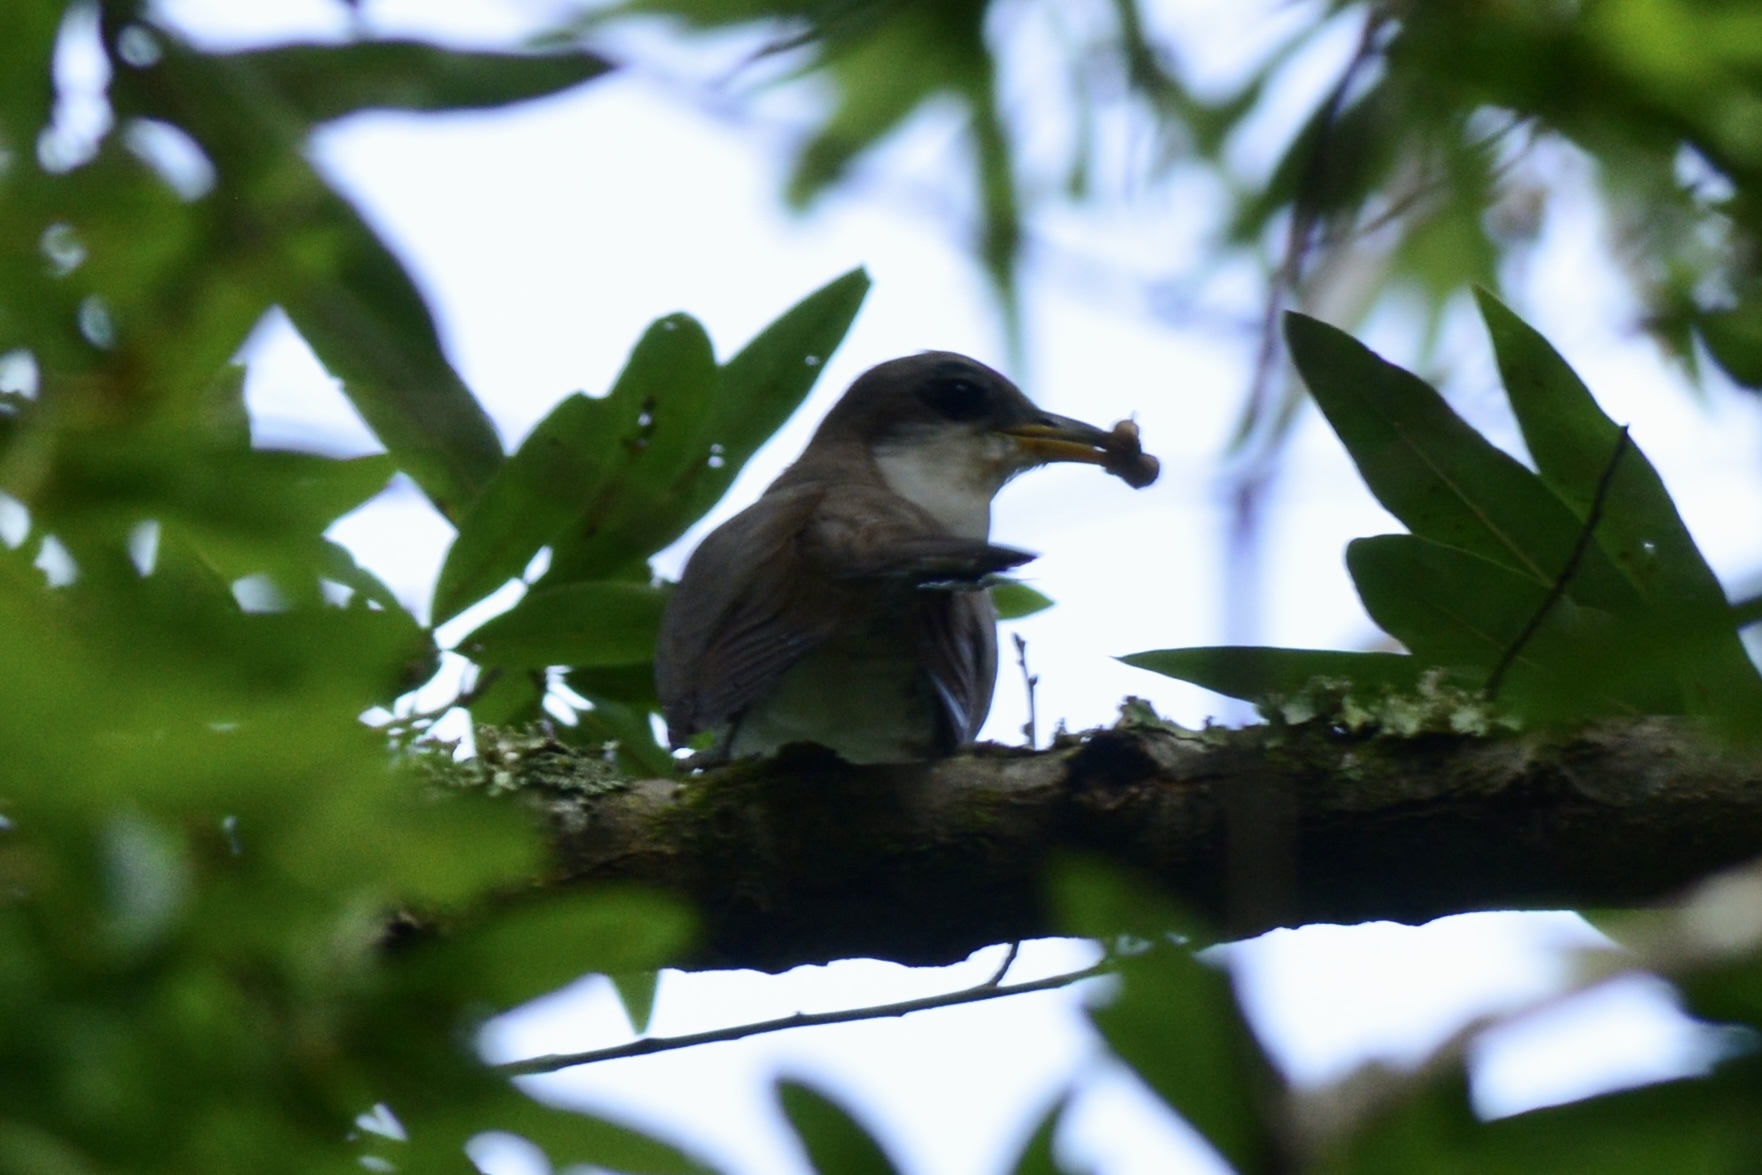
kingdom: Animalia
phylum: Chordata
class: Aves
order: Cuculiformes
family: Cuculidae
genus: Coccyzus
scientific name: Coccyzus americanus
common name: Yellow-billed cuckoo
